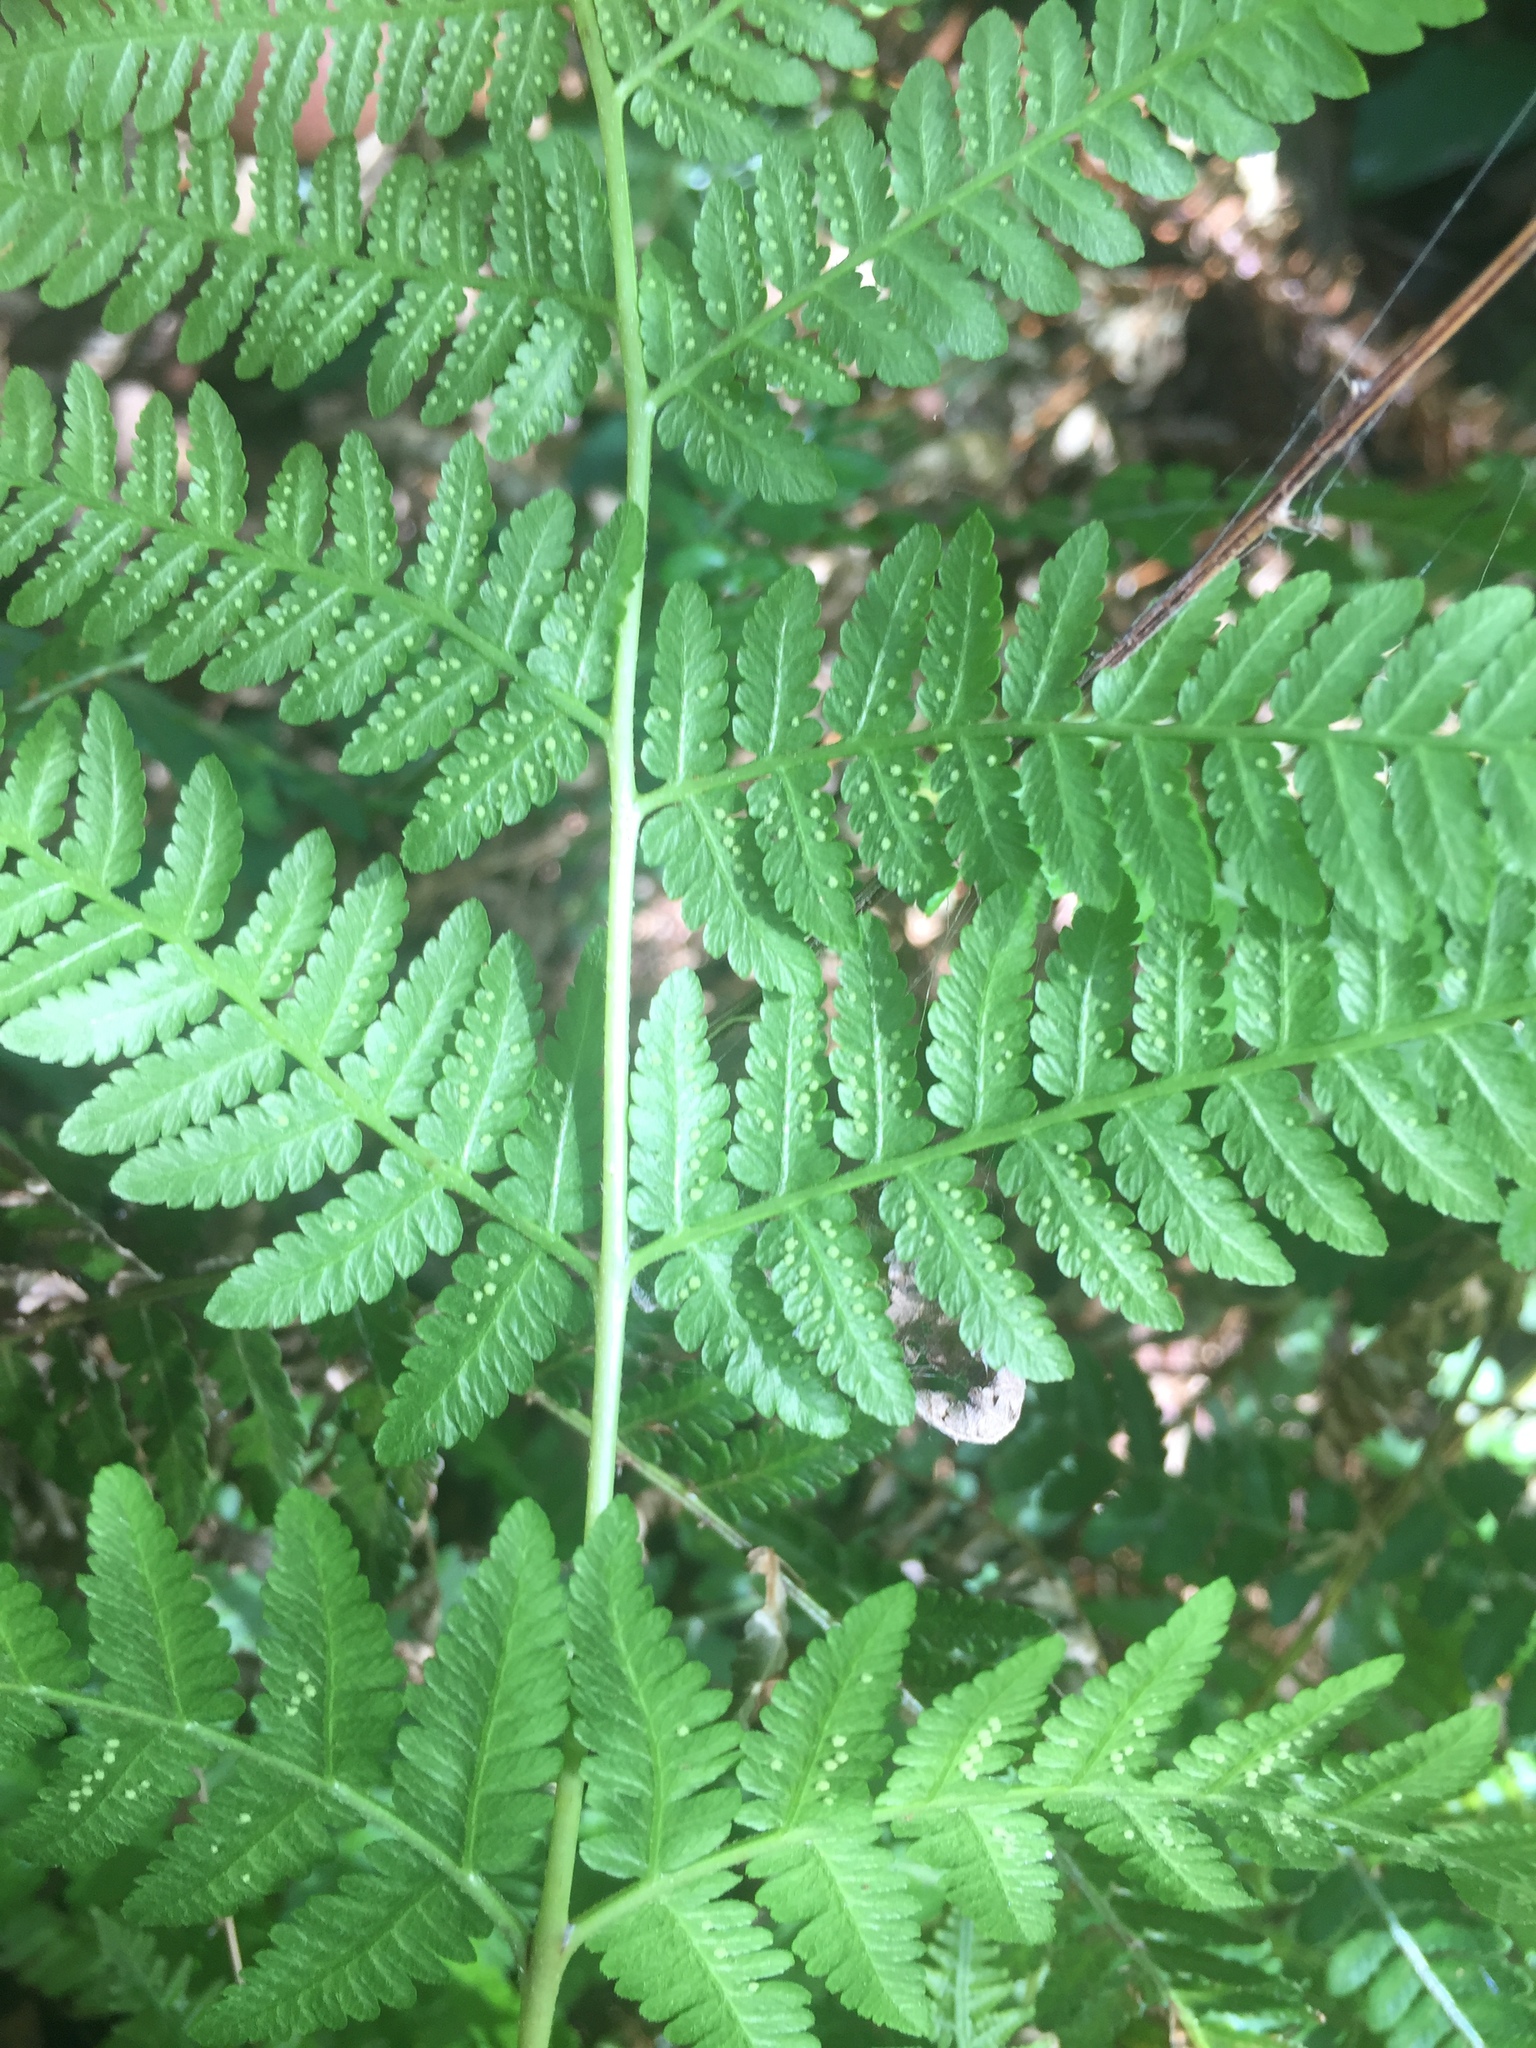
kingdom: Plantae
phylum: Tracheophyta
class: Polypodiopsida
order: Polypodiales
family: Dennstaedtiaceae
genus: Hypolepis
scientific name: Hypolepis muelleri
